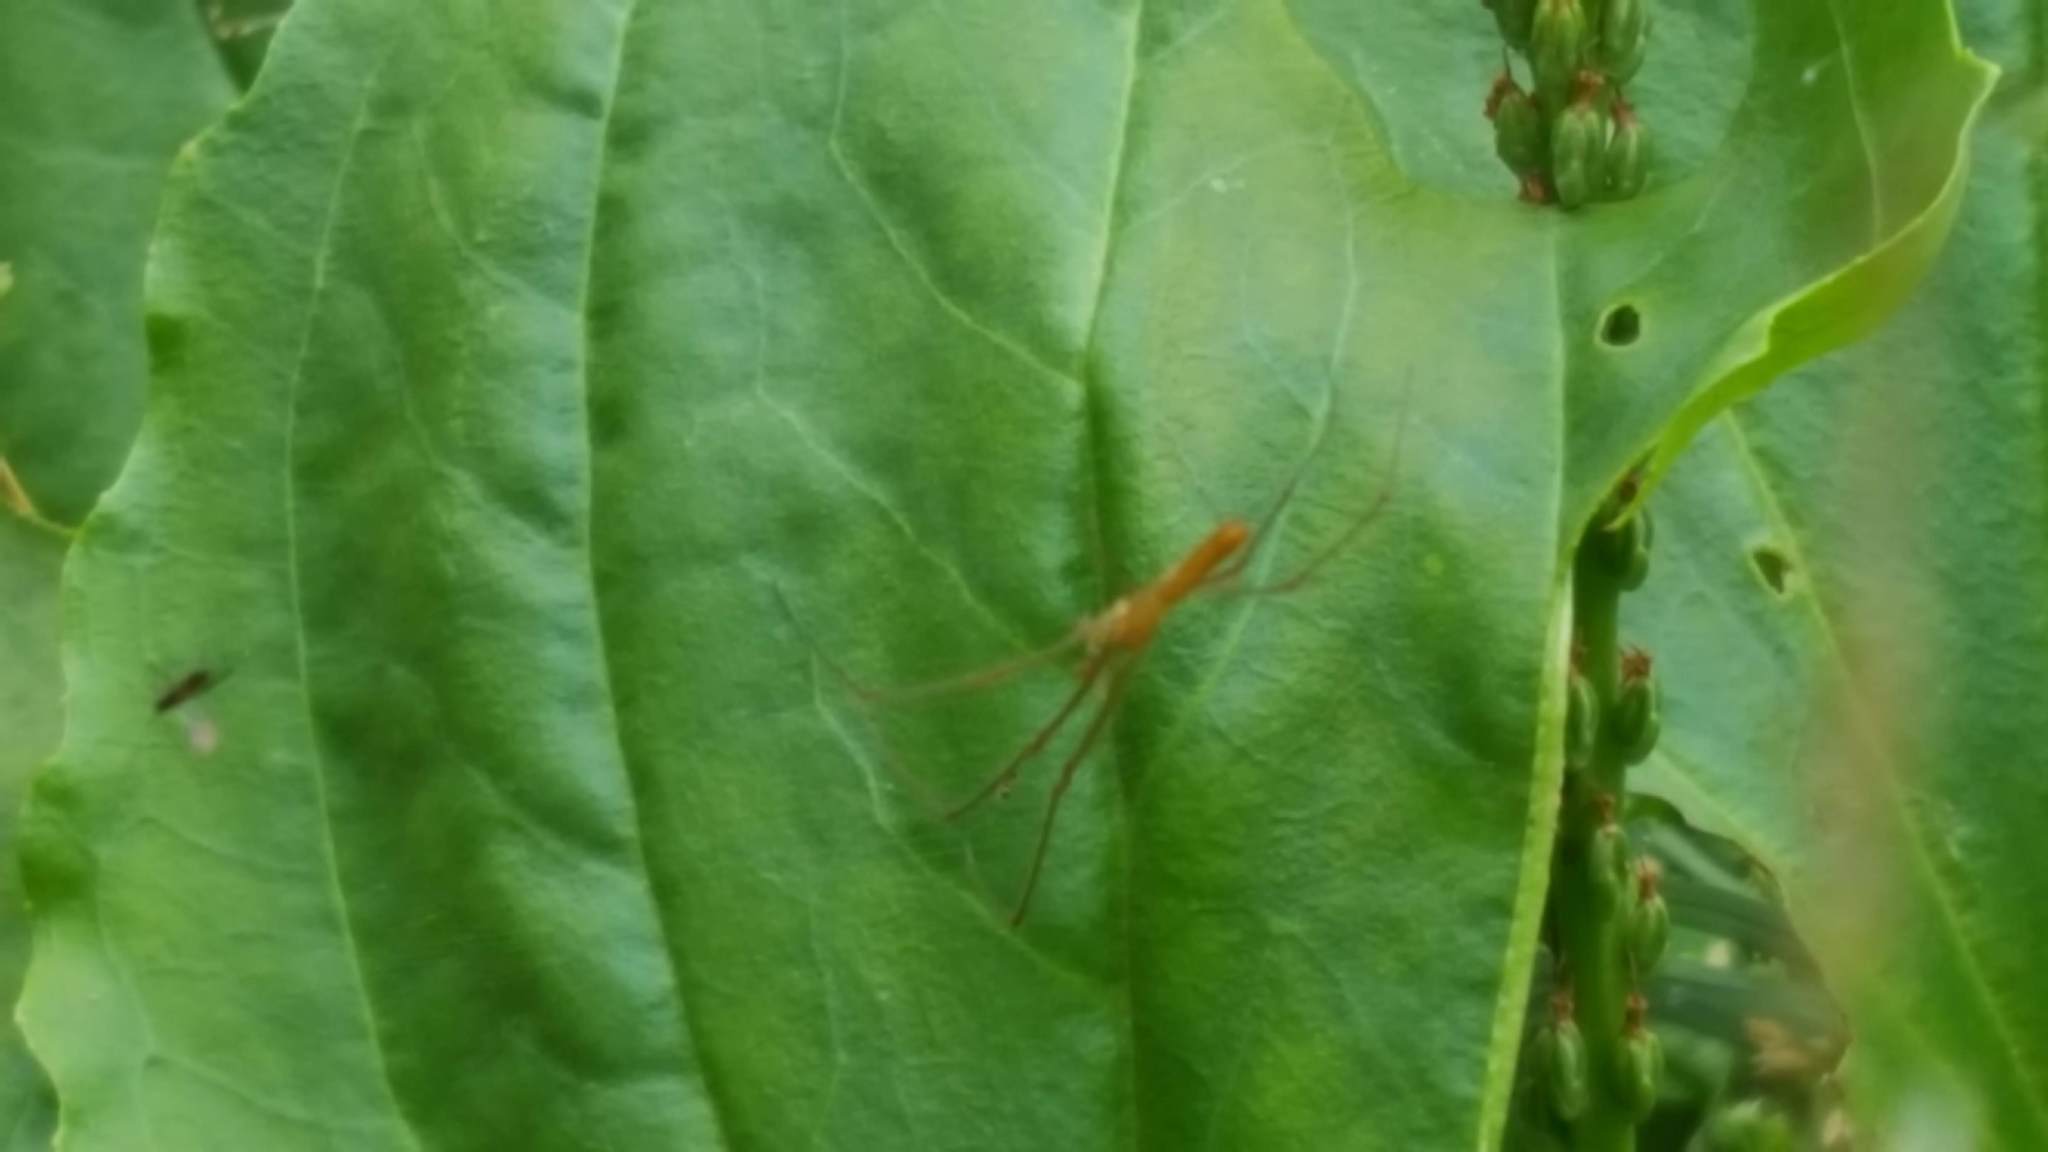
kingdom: Animalia
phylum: Arthropoda
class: Arachnida
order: Araneae
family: Tetragnathidae
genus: Tetragnatha
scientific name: Tetragnatha
